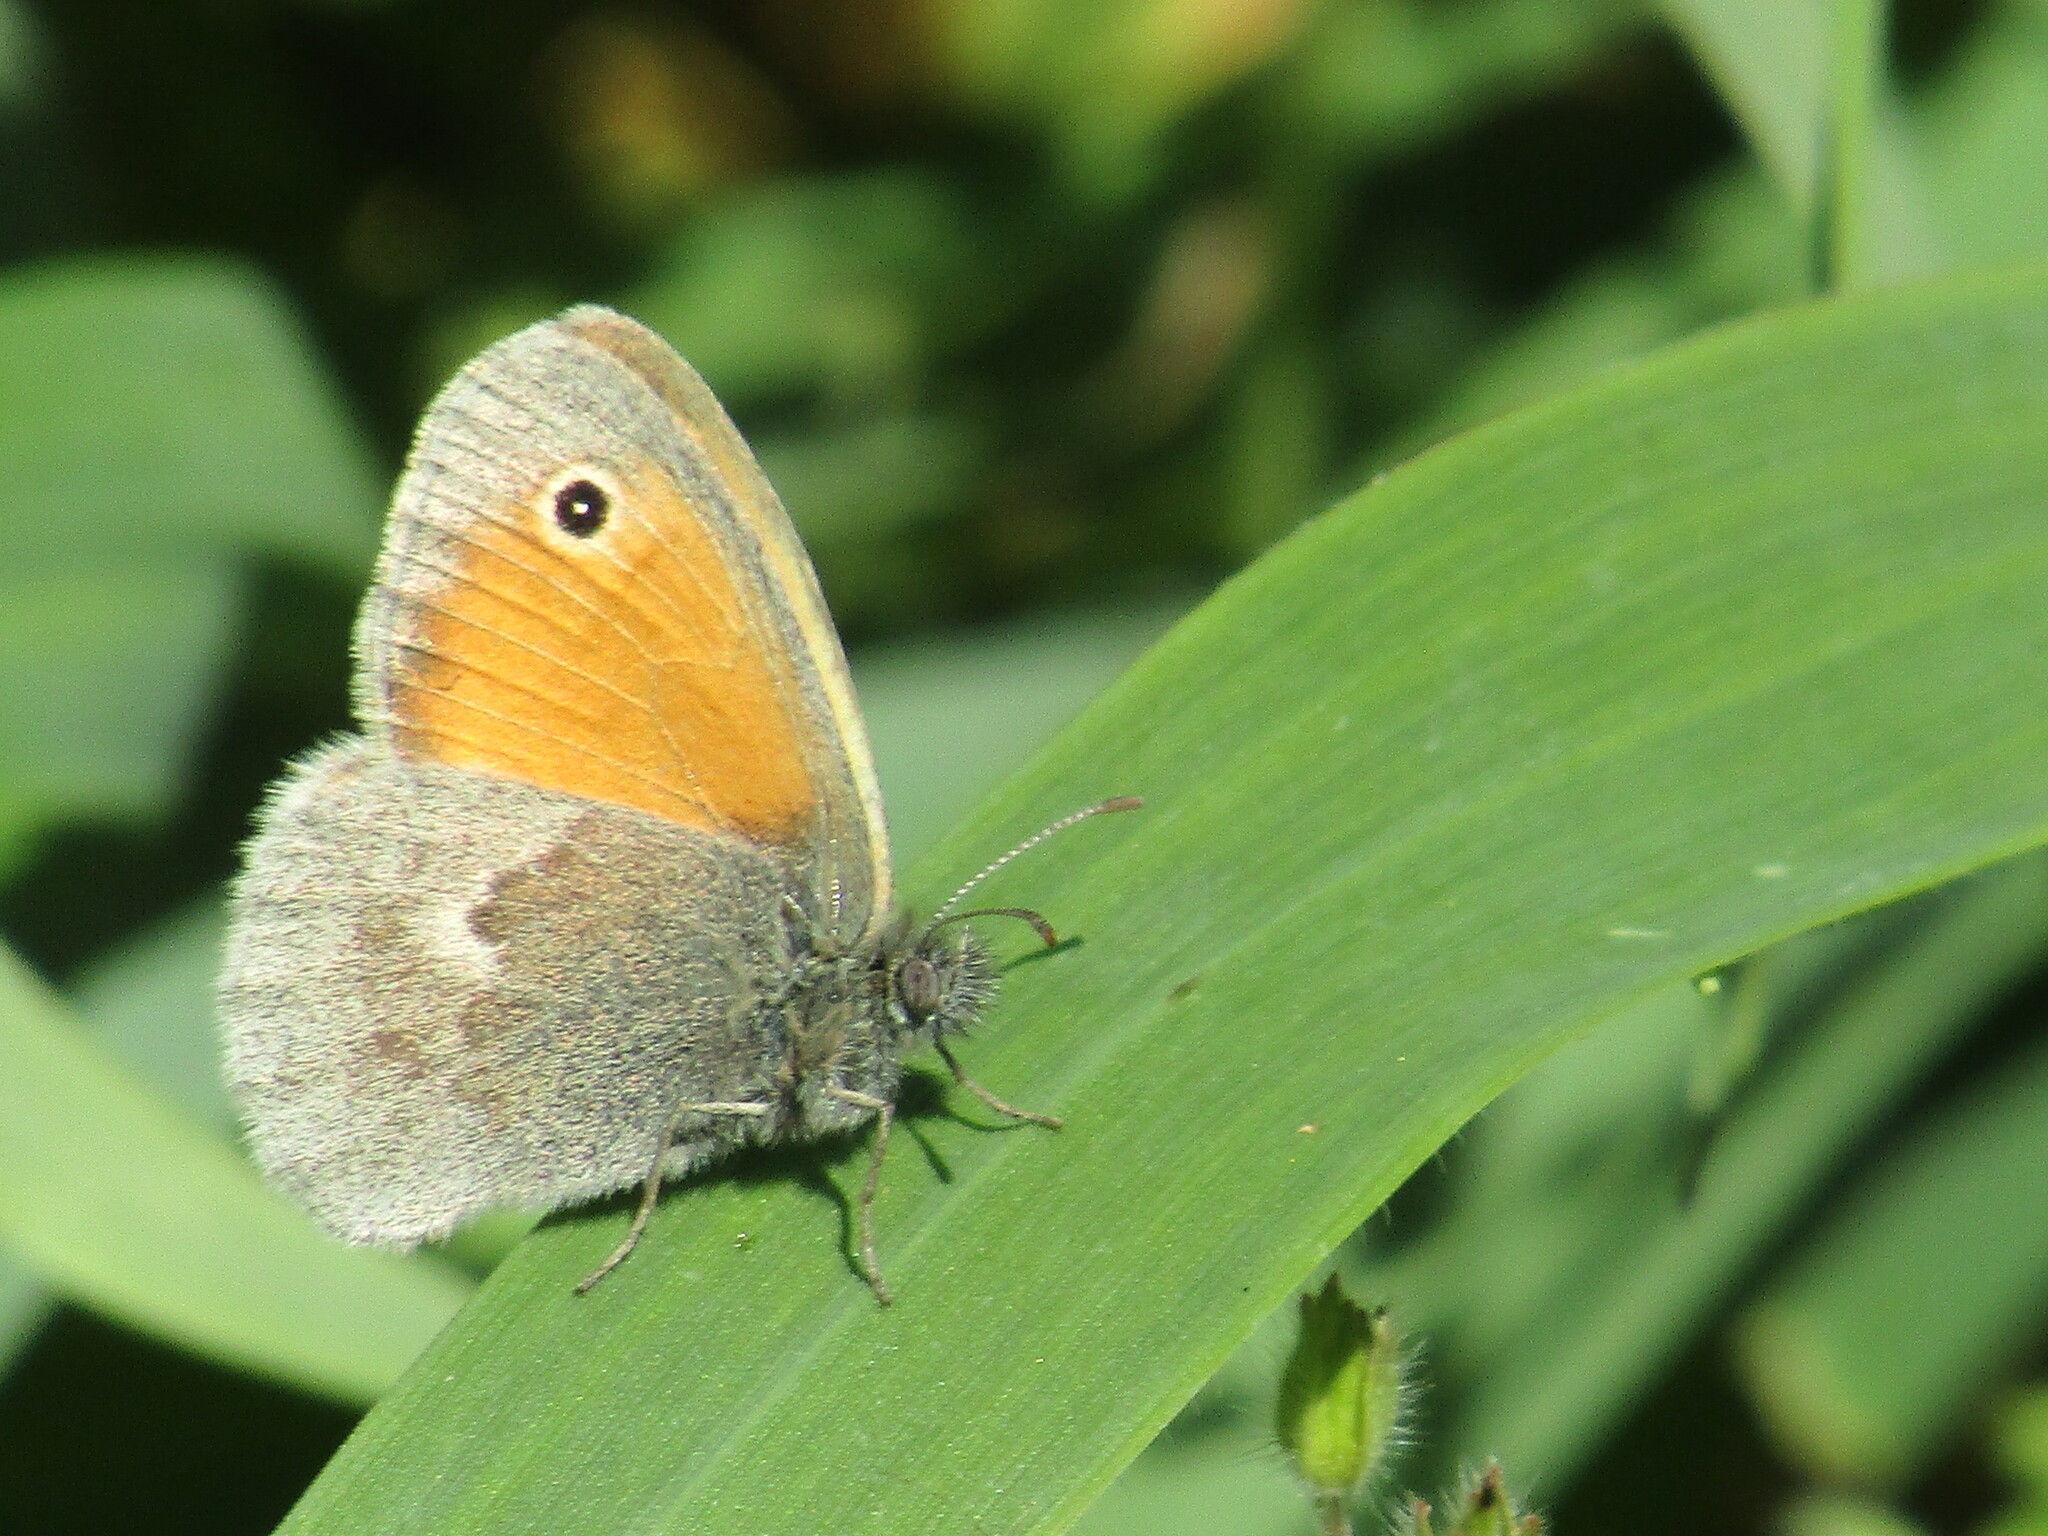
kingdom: Animalia
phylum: Arthropoda
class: Insecta
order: Lepidoptera
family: Nymphalidae
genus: Coenonympha
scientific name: Coenonympha pamphilus
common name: Small heath
